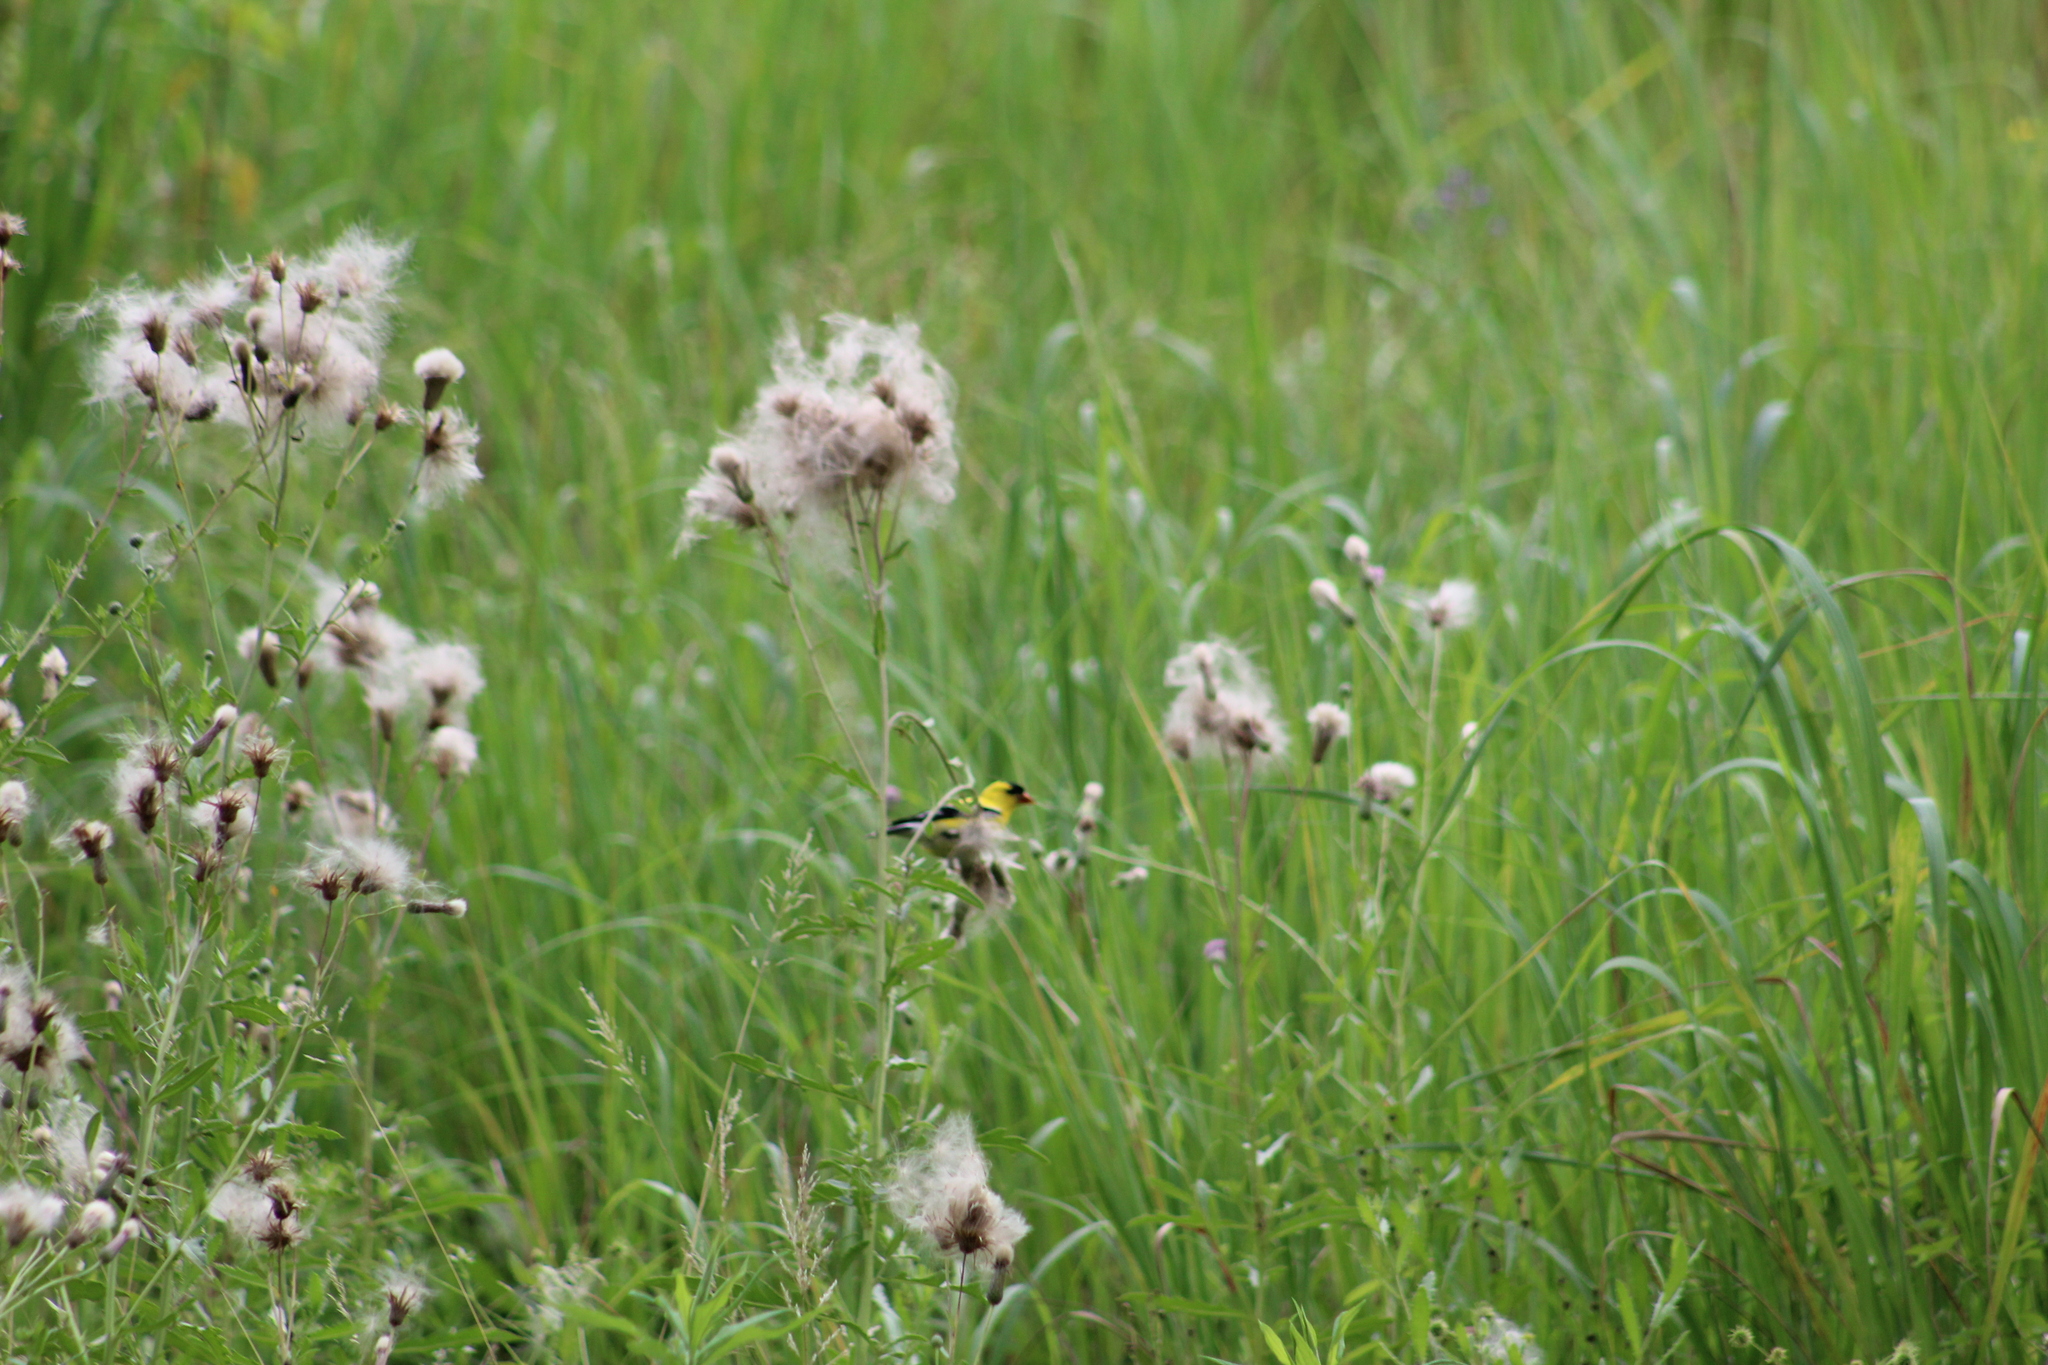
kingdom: Animalia
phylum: Chordata
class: Aves
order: Passeriformes
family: Fringillidae
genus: Spinus
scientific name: Spinus tristis
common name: American goldfinch
